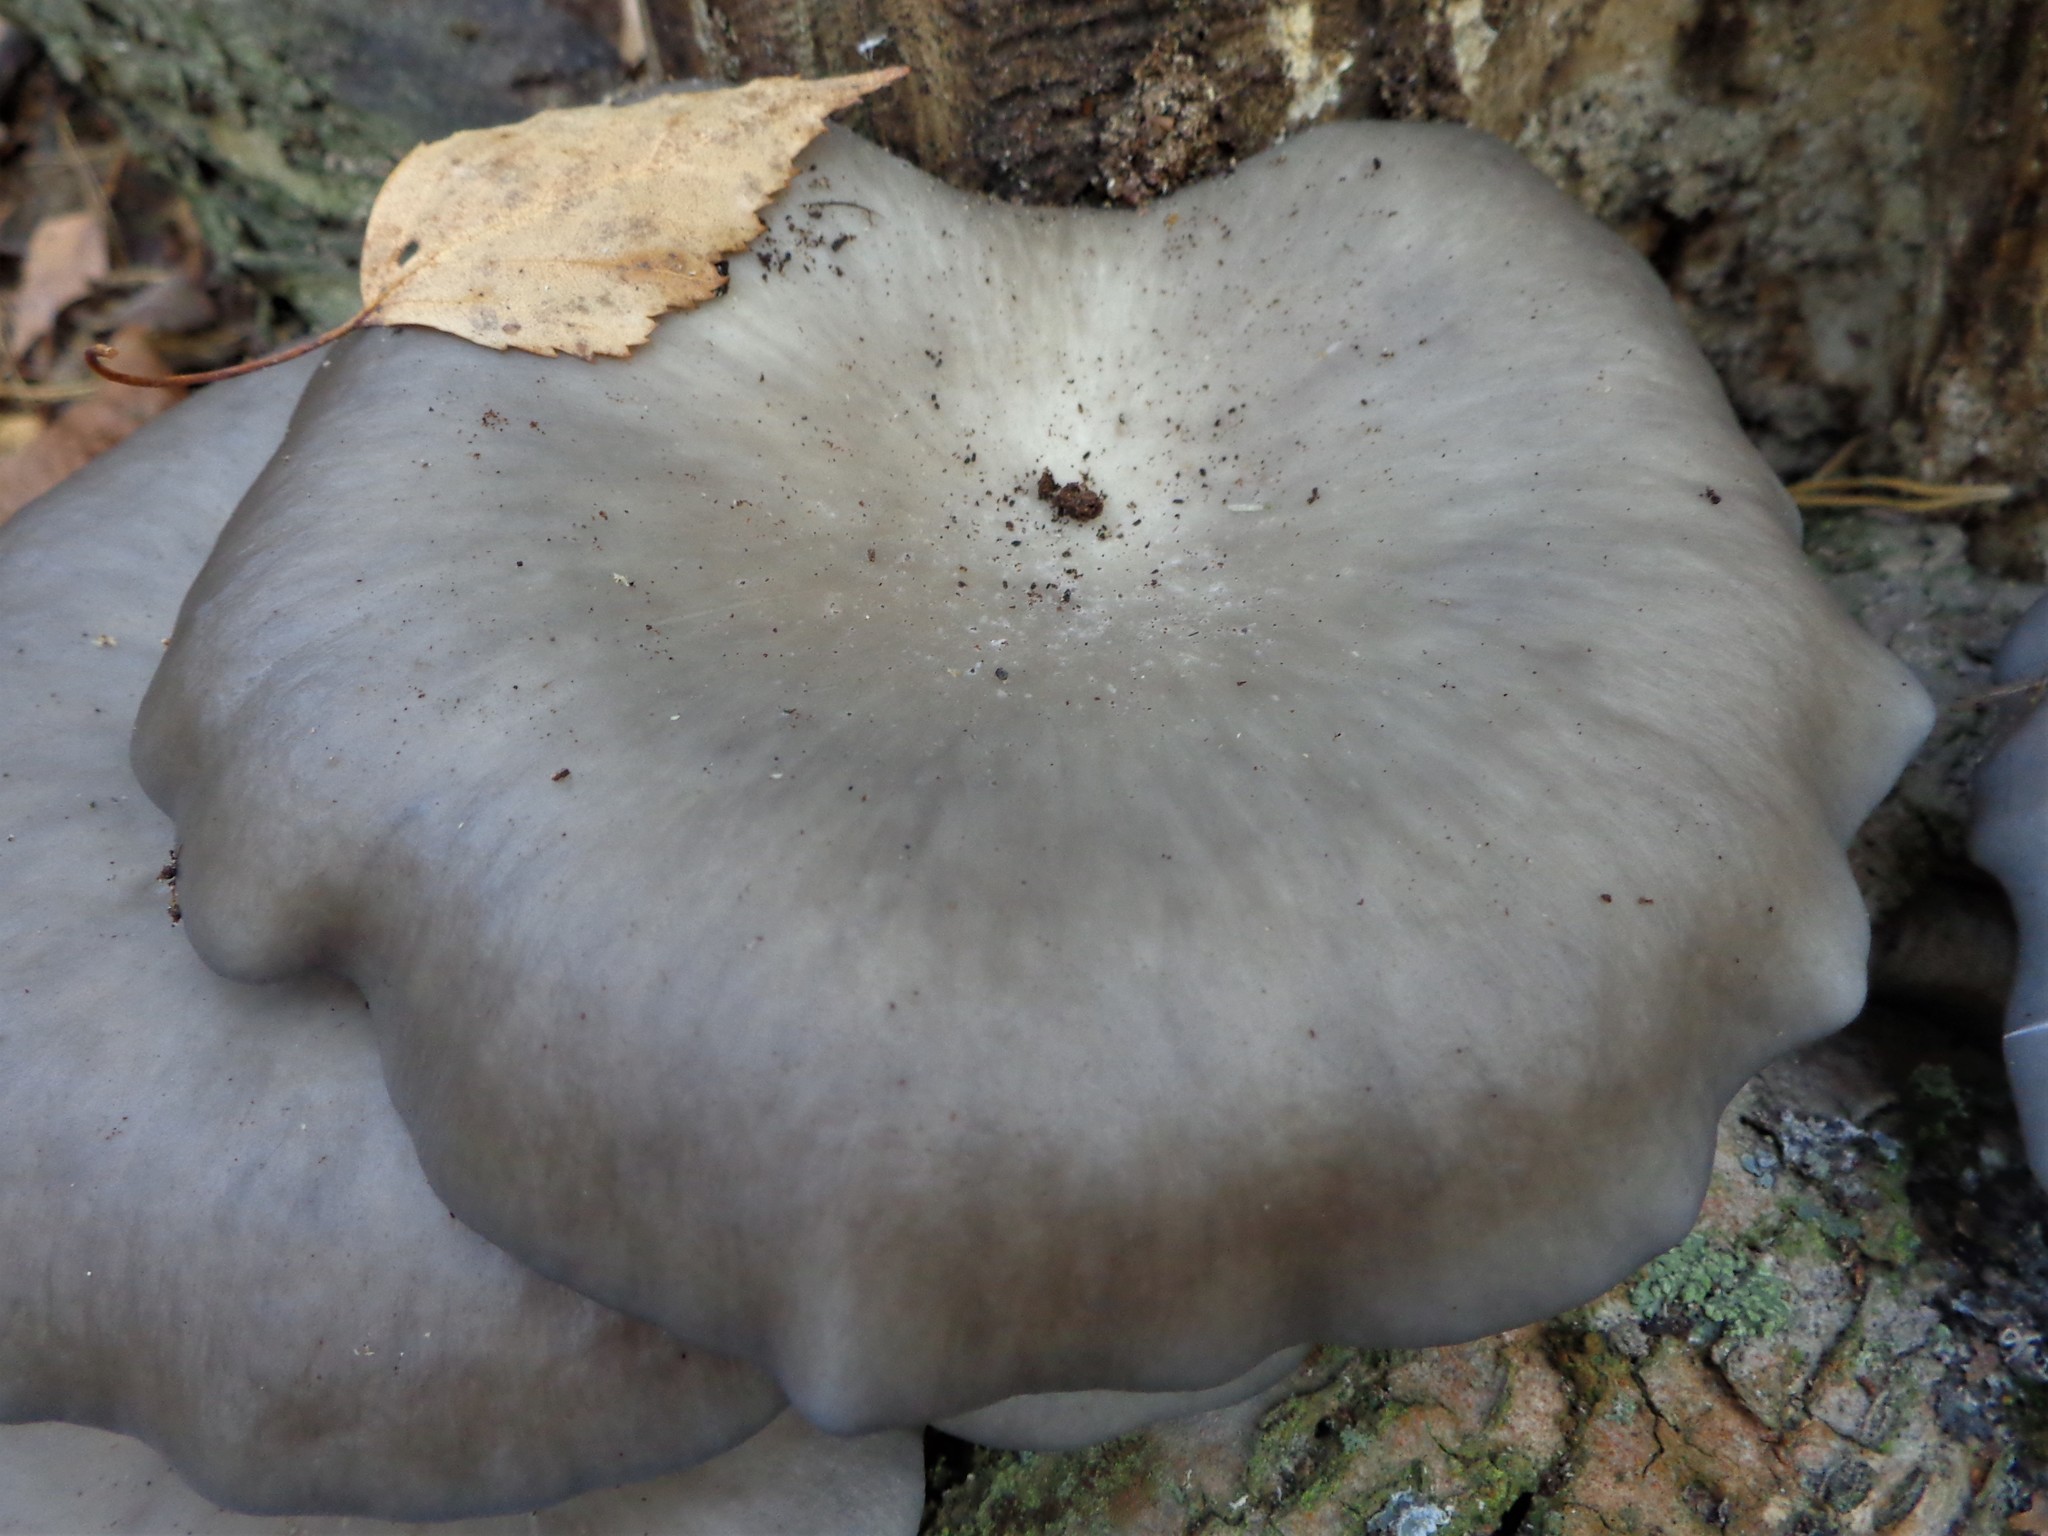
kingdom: Fungi
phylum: Basidiomycota
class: Agaricomycetes
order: Agaricales
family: Pleurotaceae
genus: Pleurotus
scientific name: Pleurotus ostreatus
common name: Oyster mushroom
